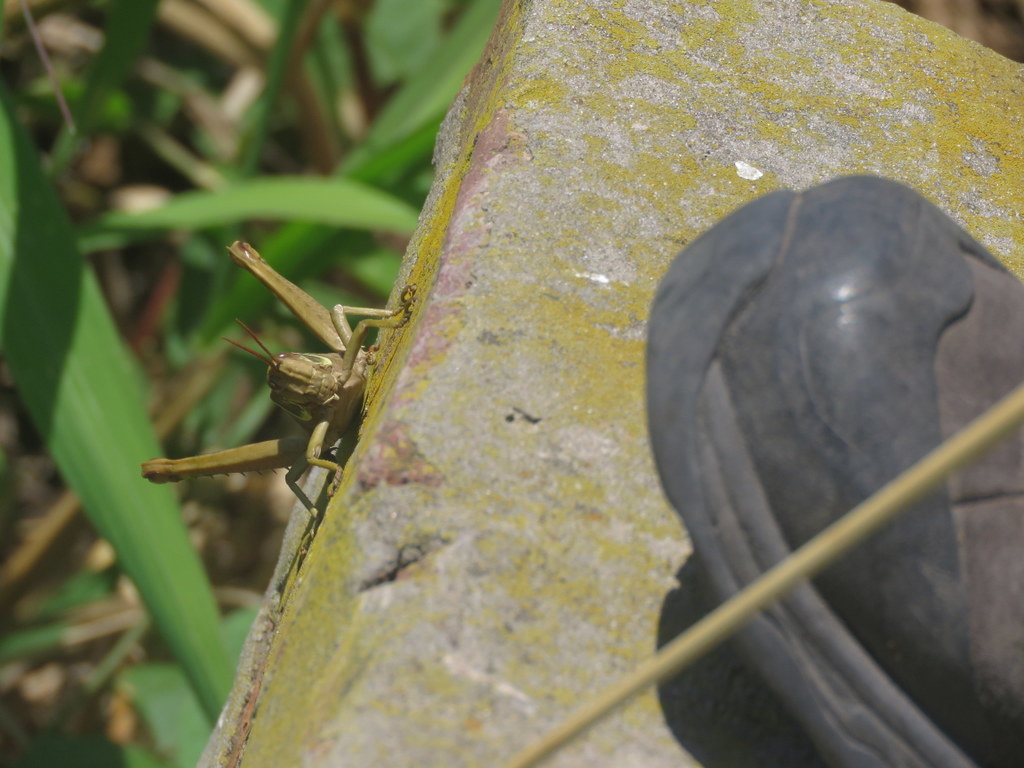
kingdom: Animalia
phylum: Arthropoda
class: Insecta
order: Orthoptera
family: Romaleidae
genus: Coryacris
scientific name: Coryacris angustipennis
